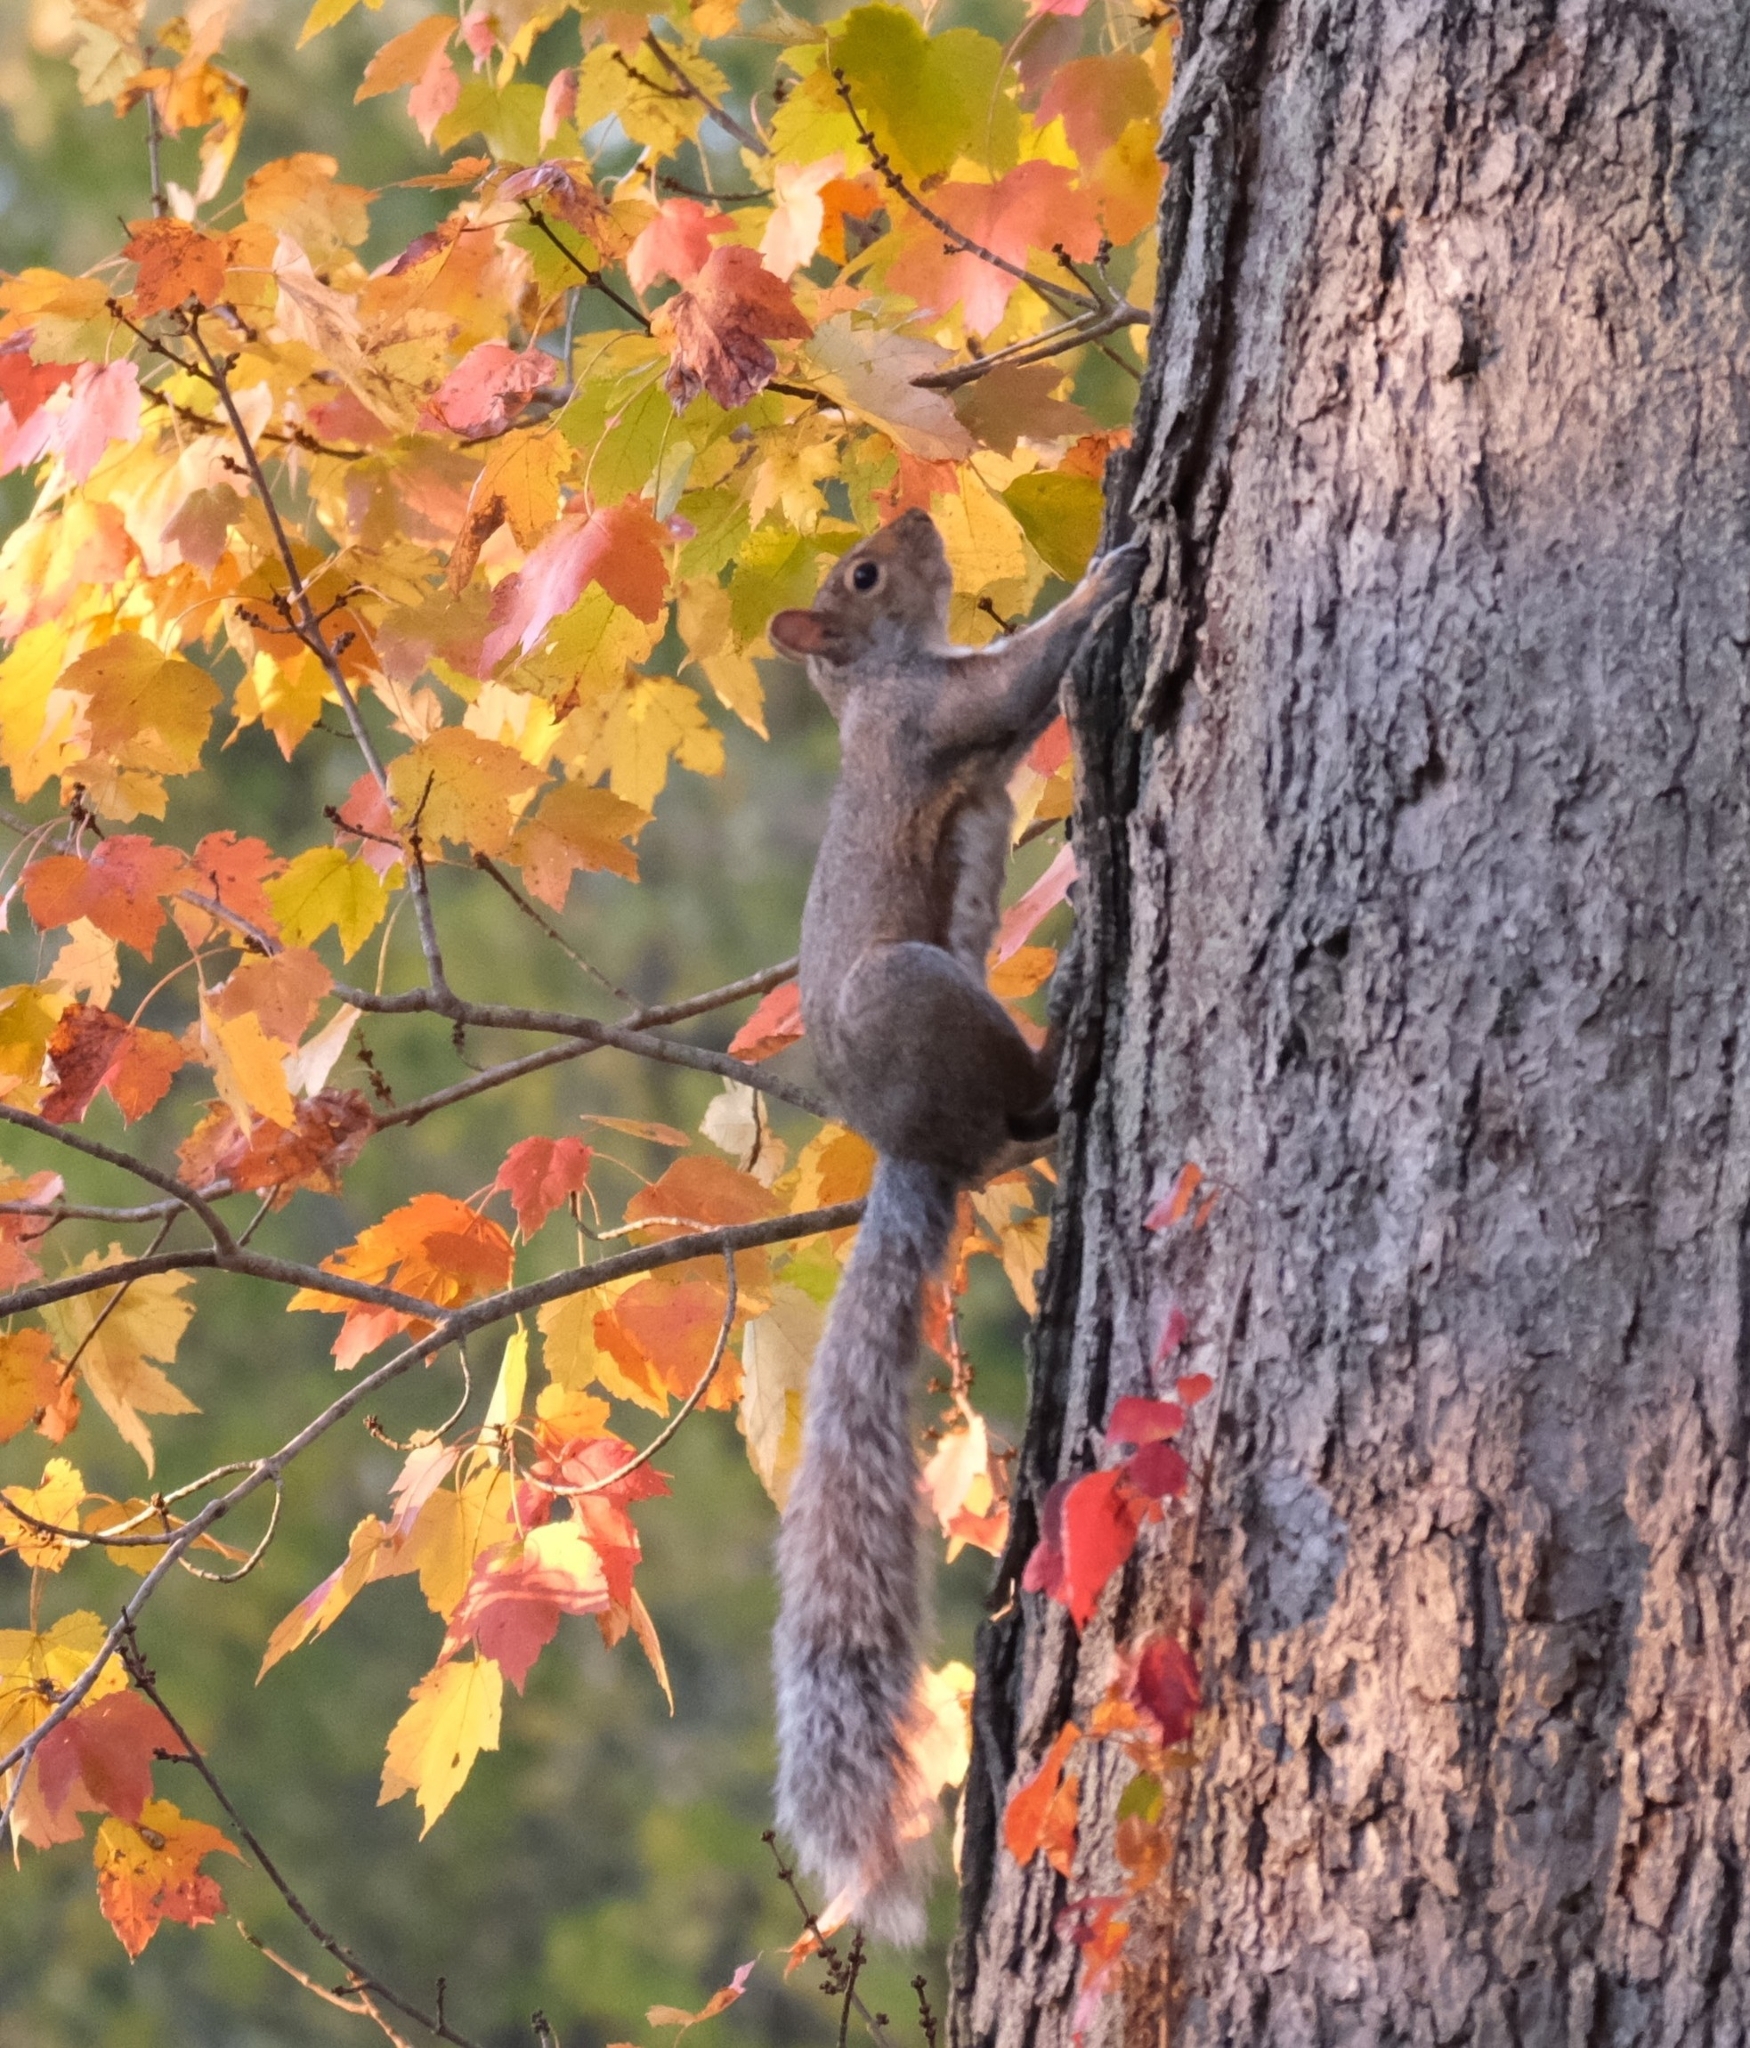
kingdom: Animalia
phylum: Chordata
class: Mammalia
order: Rodentia
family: Sciuridae
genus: Sciurus
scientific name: Sciurus carolinensis
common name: Eastern gray squirrel
